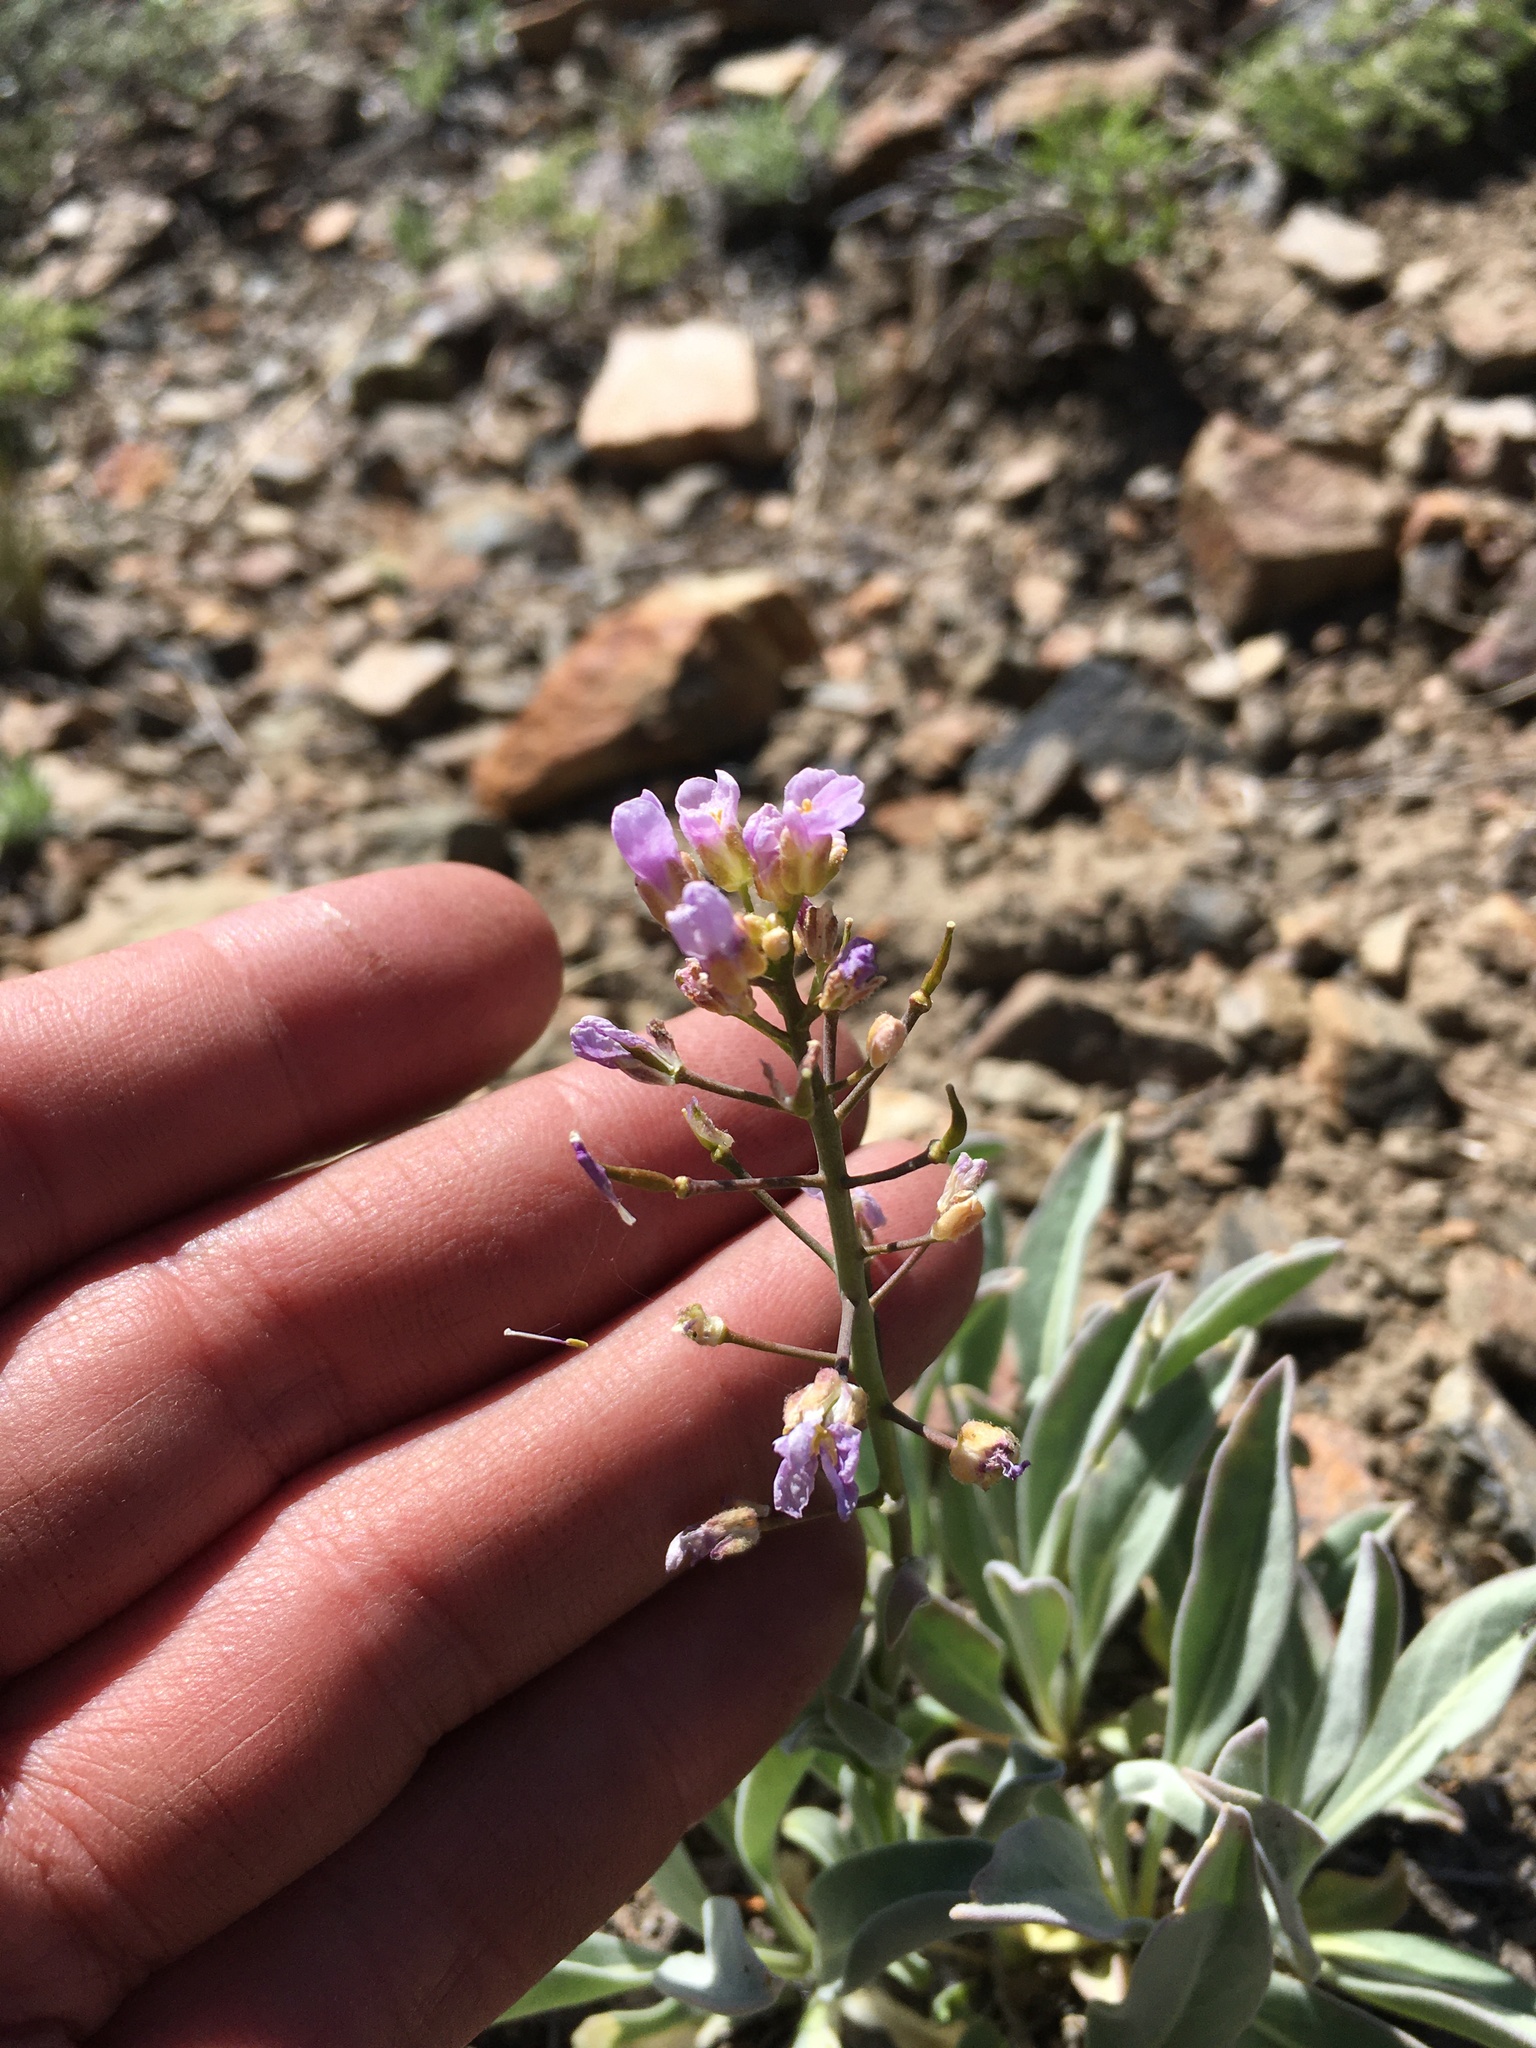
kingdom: Plantae
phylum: Tracheophyta
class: Magnoliopsida
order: Brassicales
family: Brassicaceae
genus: Phoenicaulis
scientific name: Phoenicaulis cheiranthoides
